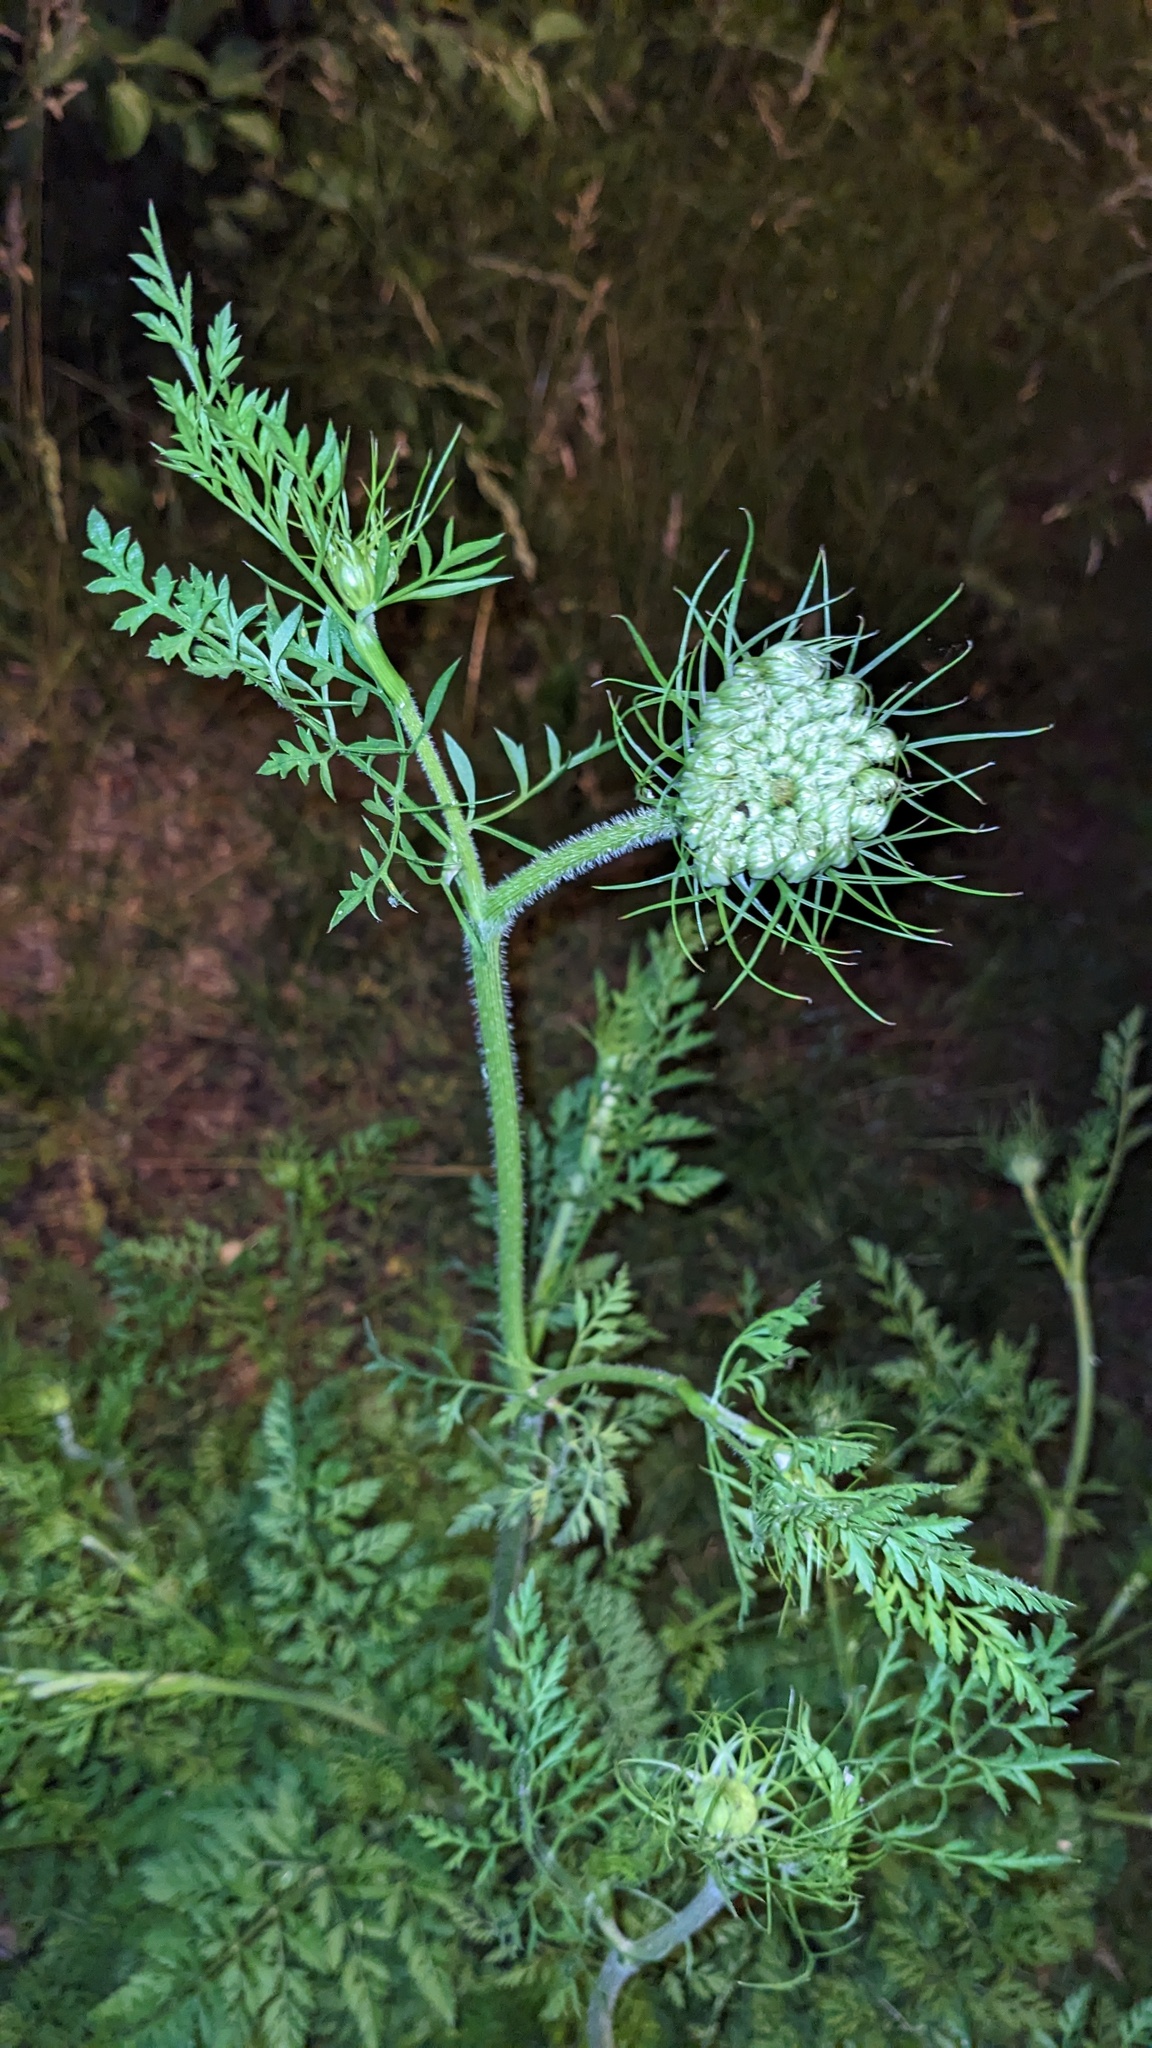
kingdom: Plantae
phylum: Tracheophyta
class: Magnoliopsida
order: Apiales
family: Apiaceae
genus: Daucus
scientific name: Daucus carota
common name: Wild carrot
